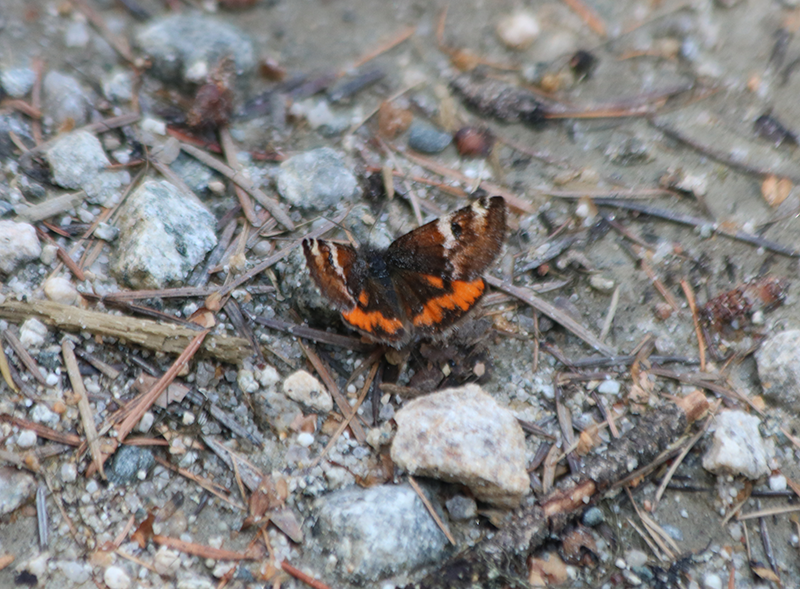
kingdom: Animalia
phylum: Arthropoda
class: Insecta
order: Lepidoptera
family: Geometridae
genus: Archiearis
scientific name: Archiearis infans
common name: First born geometer
